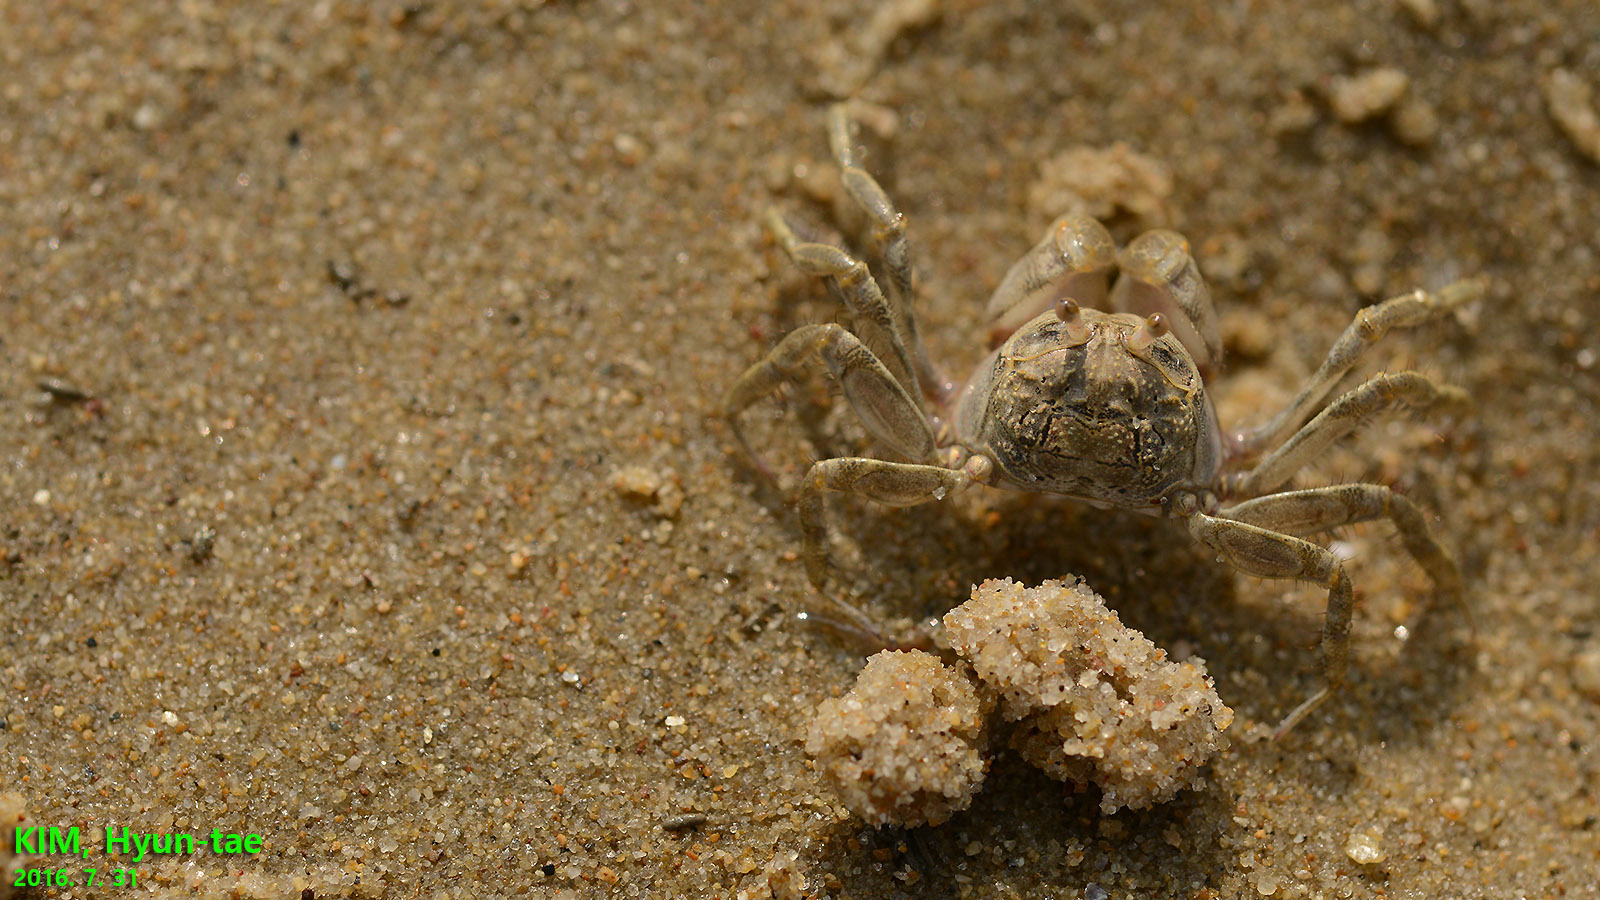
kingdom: Animalia
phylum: Arthropoda
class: Malacostraca
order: Decapoda
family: Dotillidae
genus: Scopimera
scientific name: Scopimera globosa
